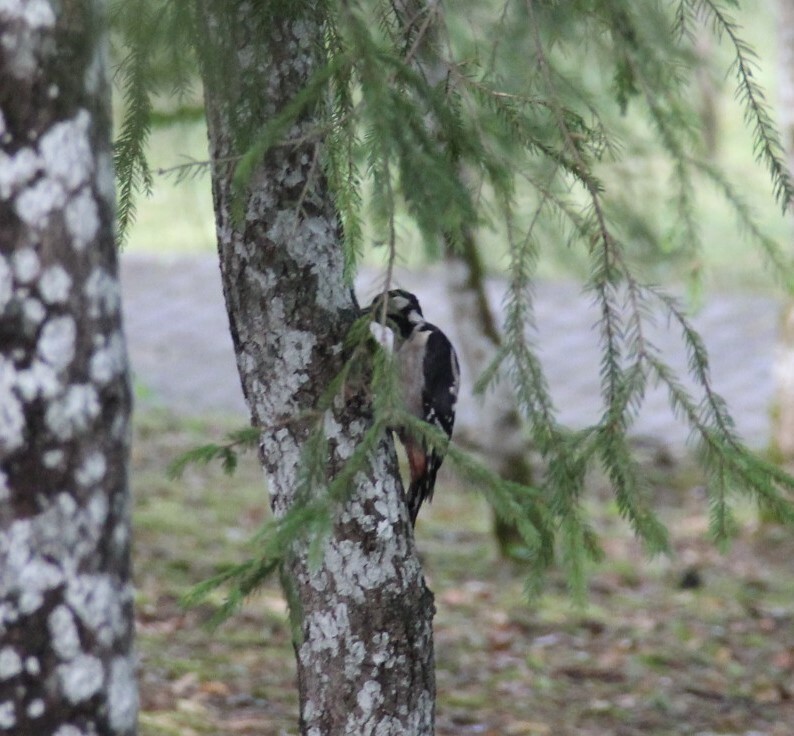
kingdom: Animalia
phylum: Chordata
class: Aves
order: Piciformes
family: Picidae
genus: Dendrocopos
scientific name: Dendrocopos major
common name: Great spotted woodpecker
